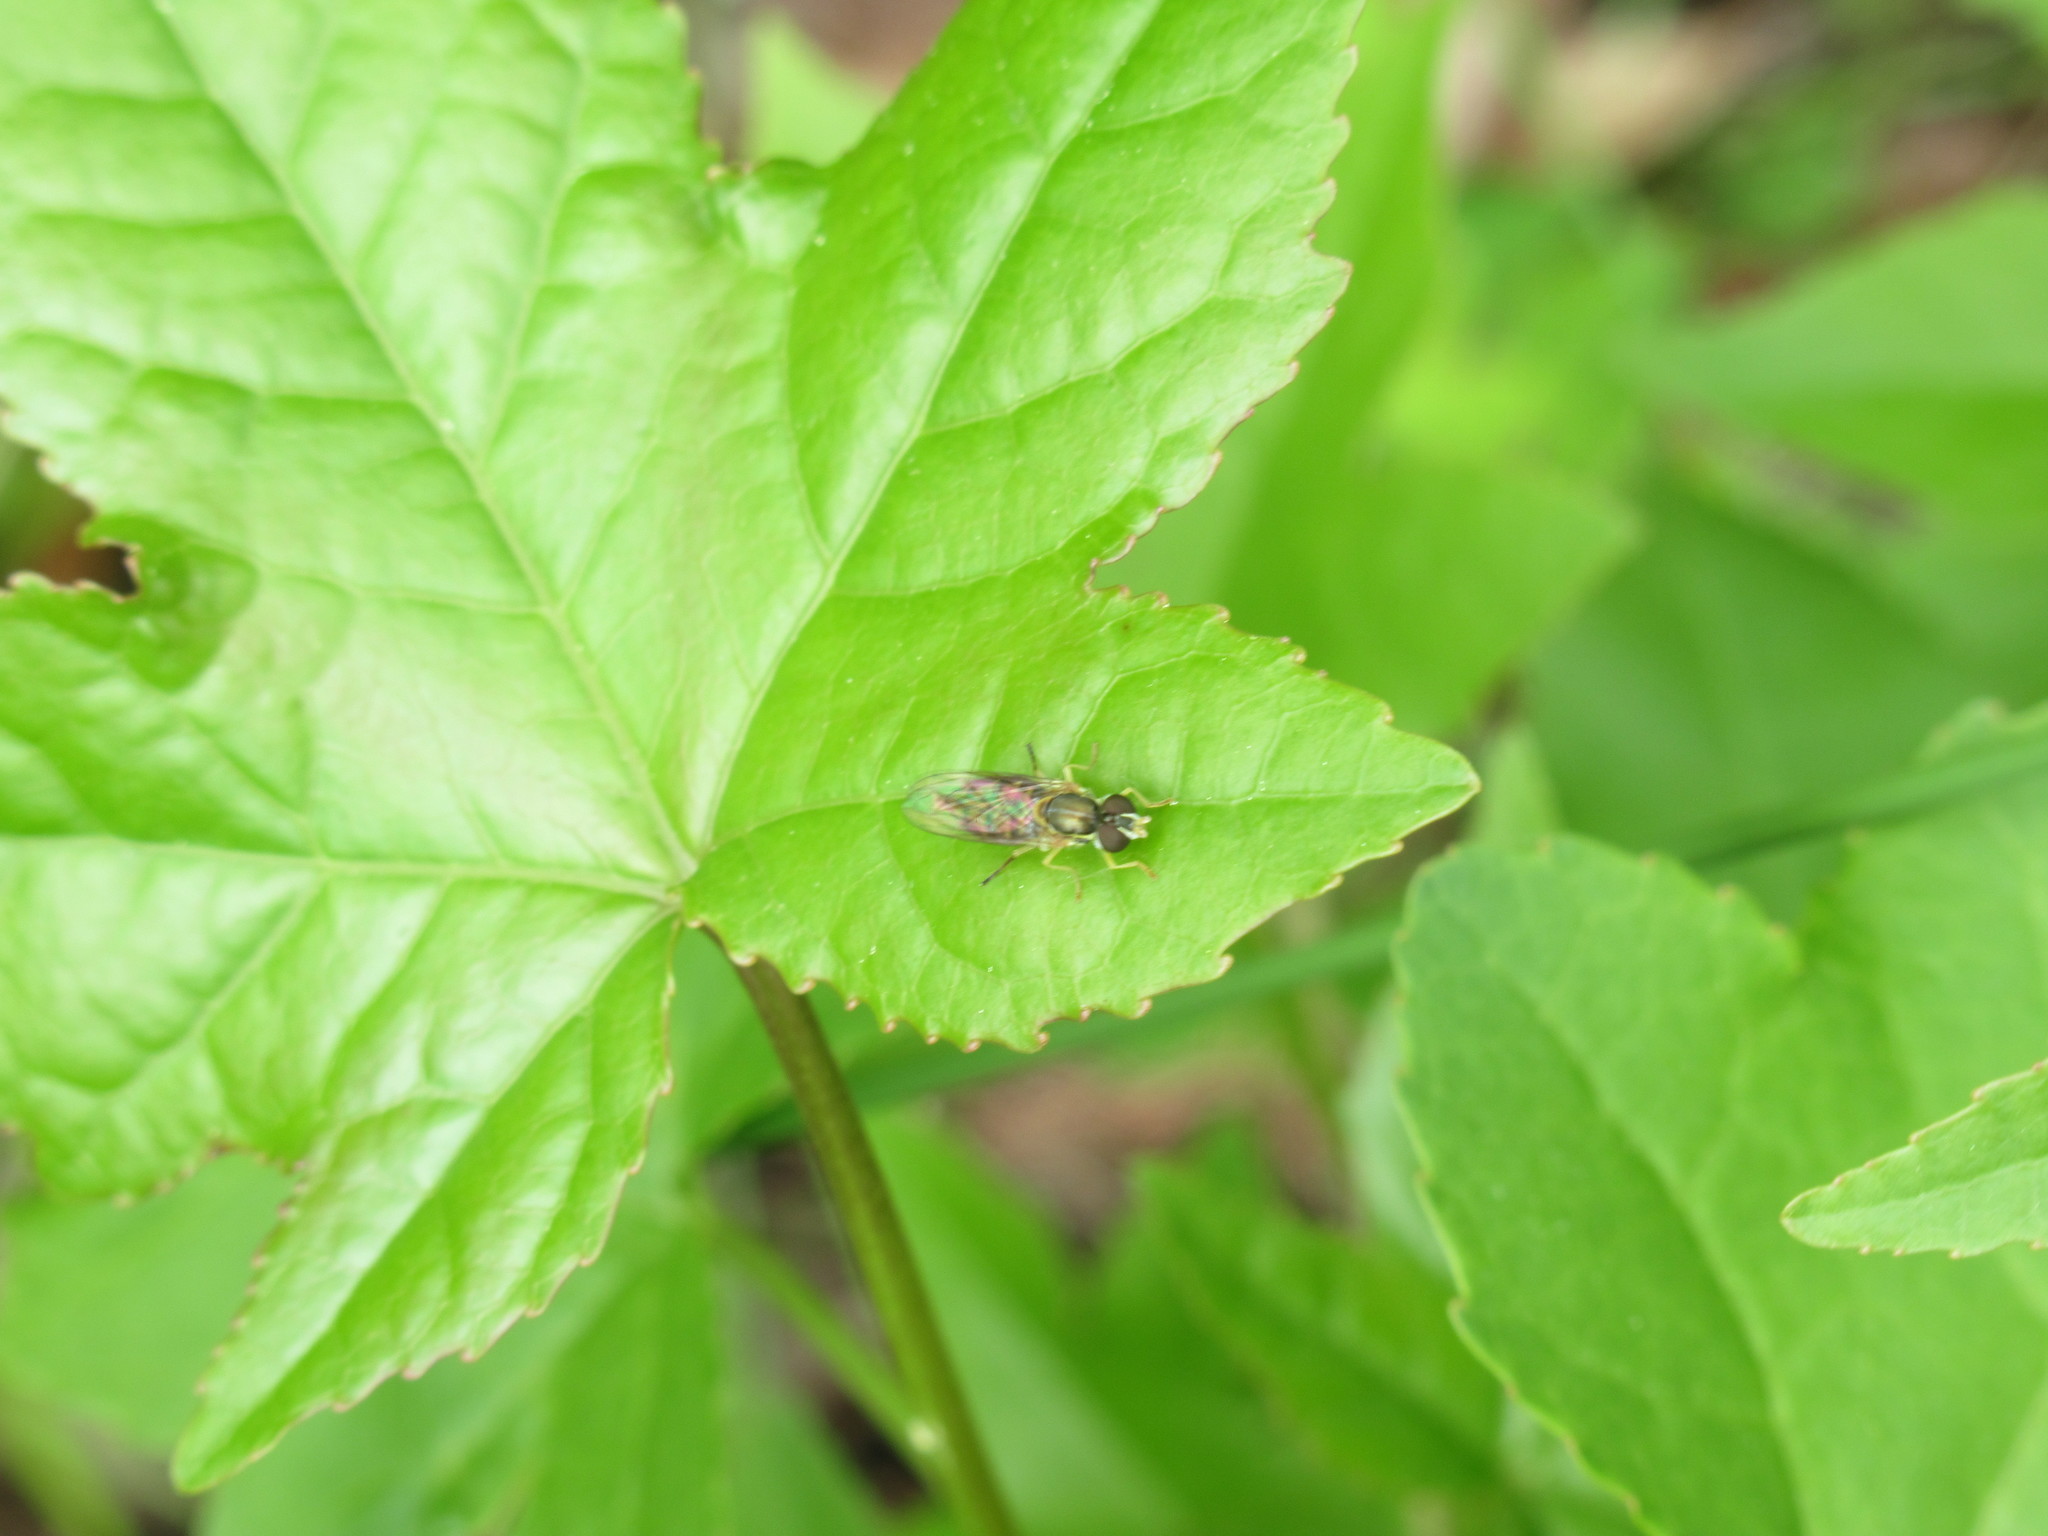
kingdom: Animalia
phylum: Arthropoda
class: Insecta
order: Diptera
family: Syrphidae
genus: Toxomerus
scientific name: Toxomerus marginatus
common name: Syrphid fly
